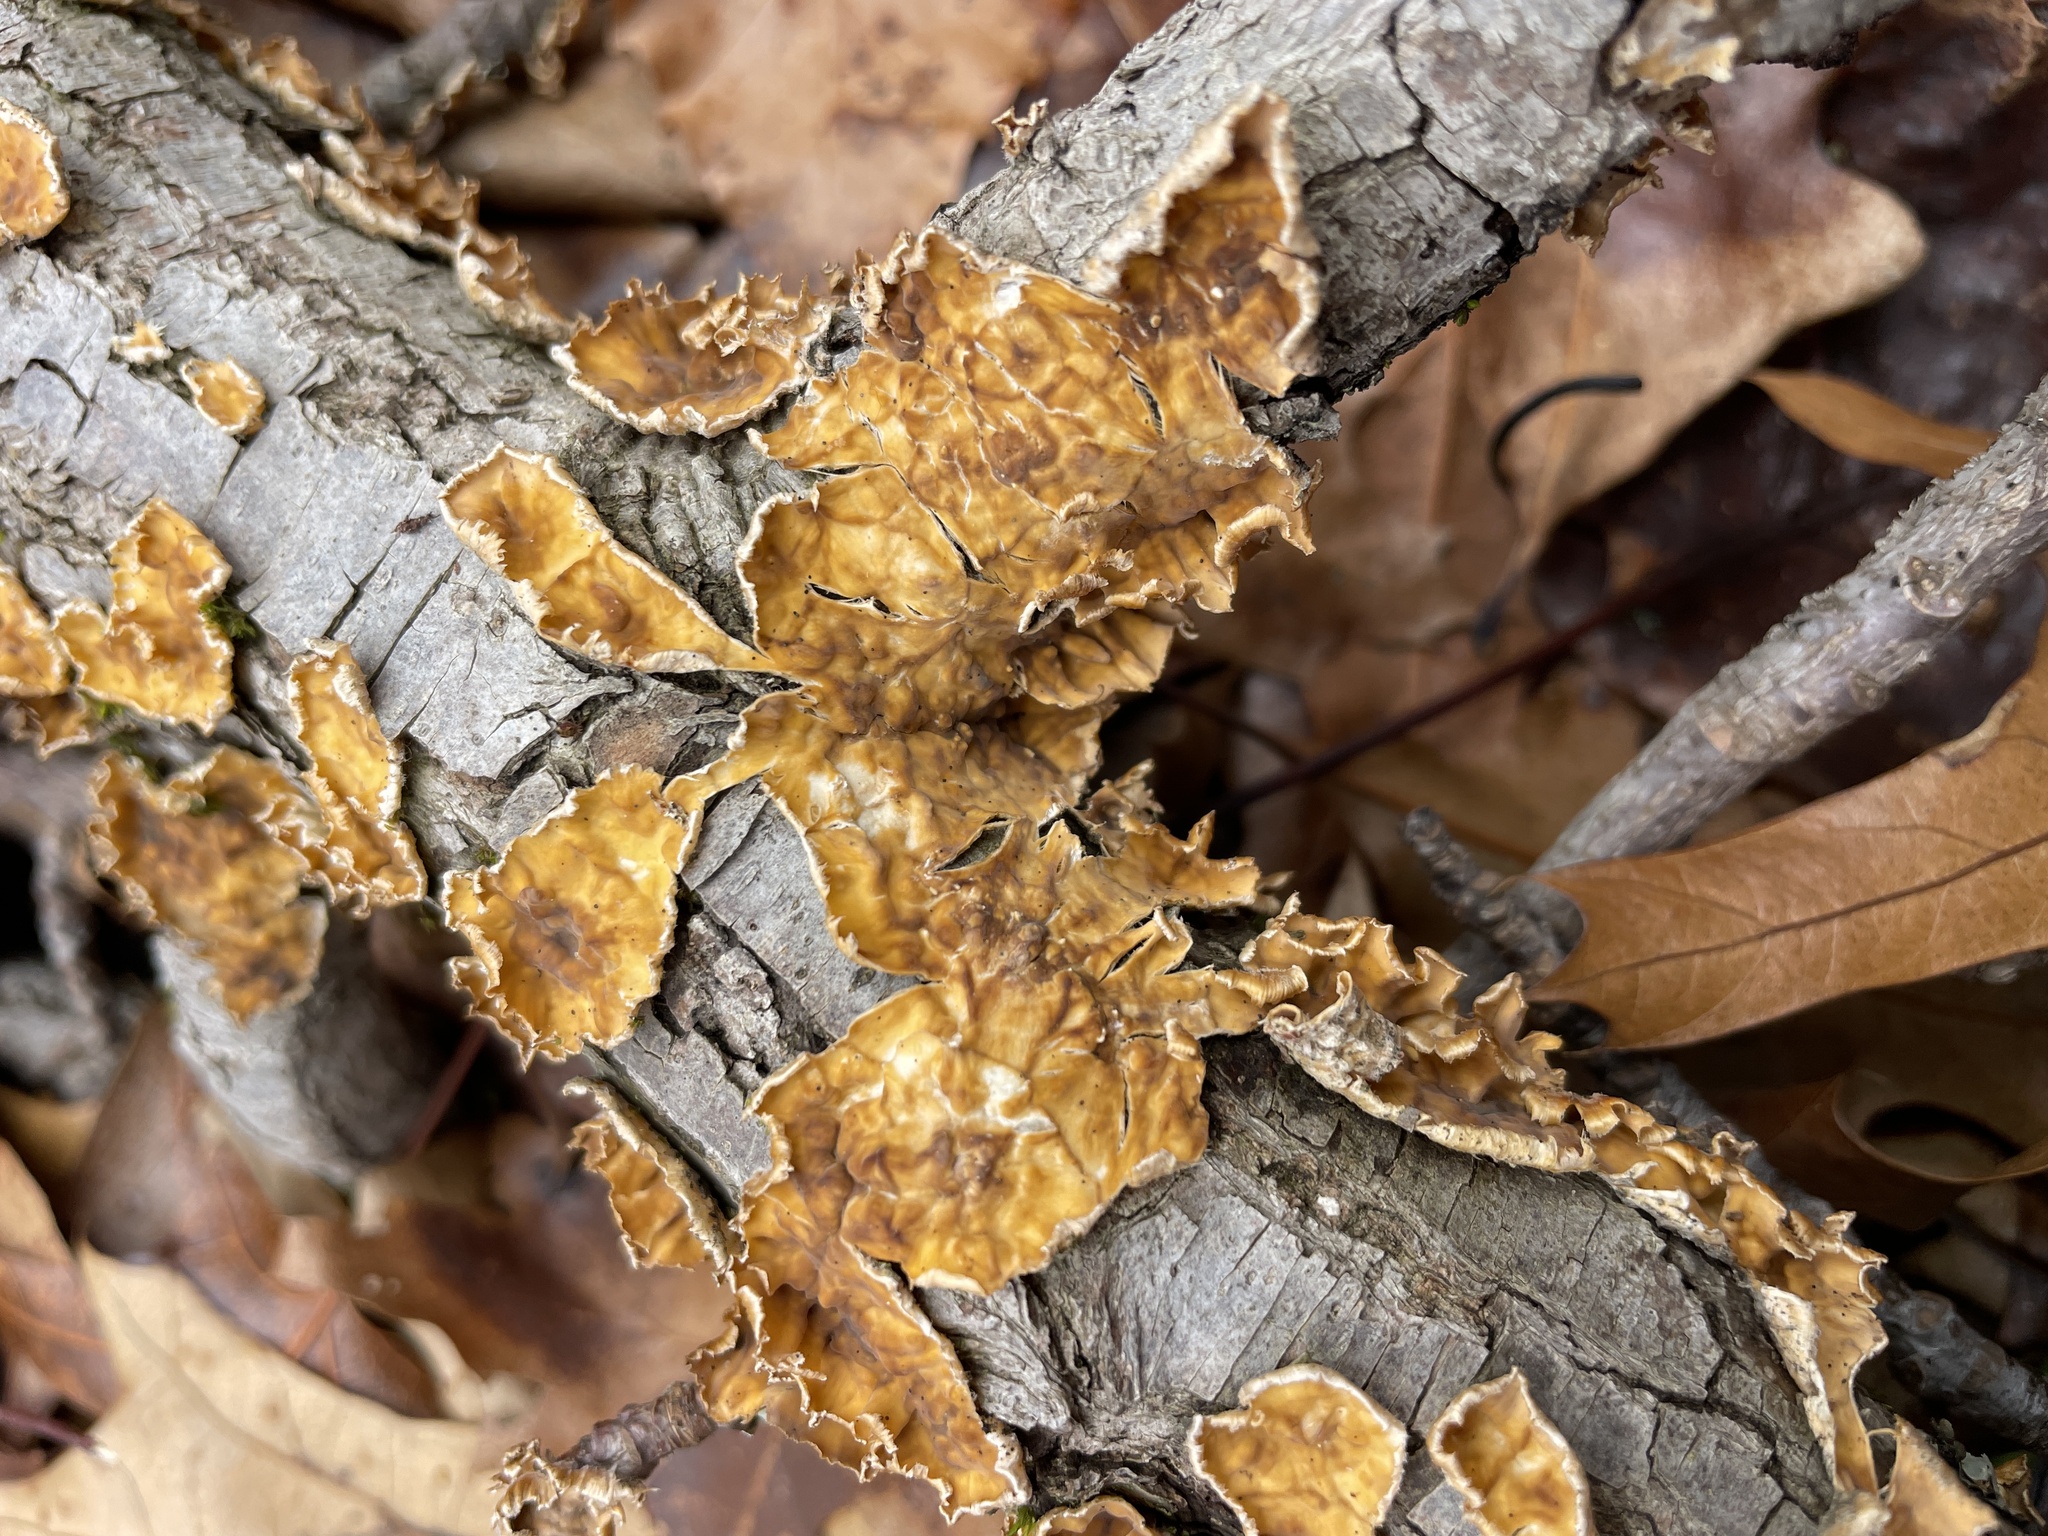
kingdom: Fungi
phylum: Basidiomycota
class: Agaricomycetes
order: Russulales
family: Stereaceae
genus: Stereum
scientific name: Stereum complicatum
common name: Crowded parchment
